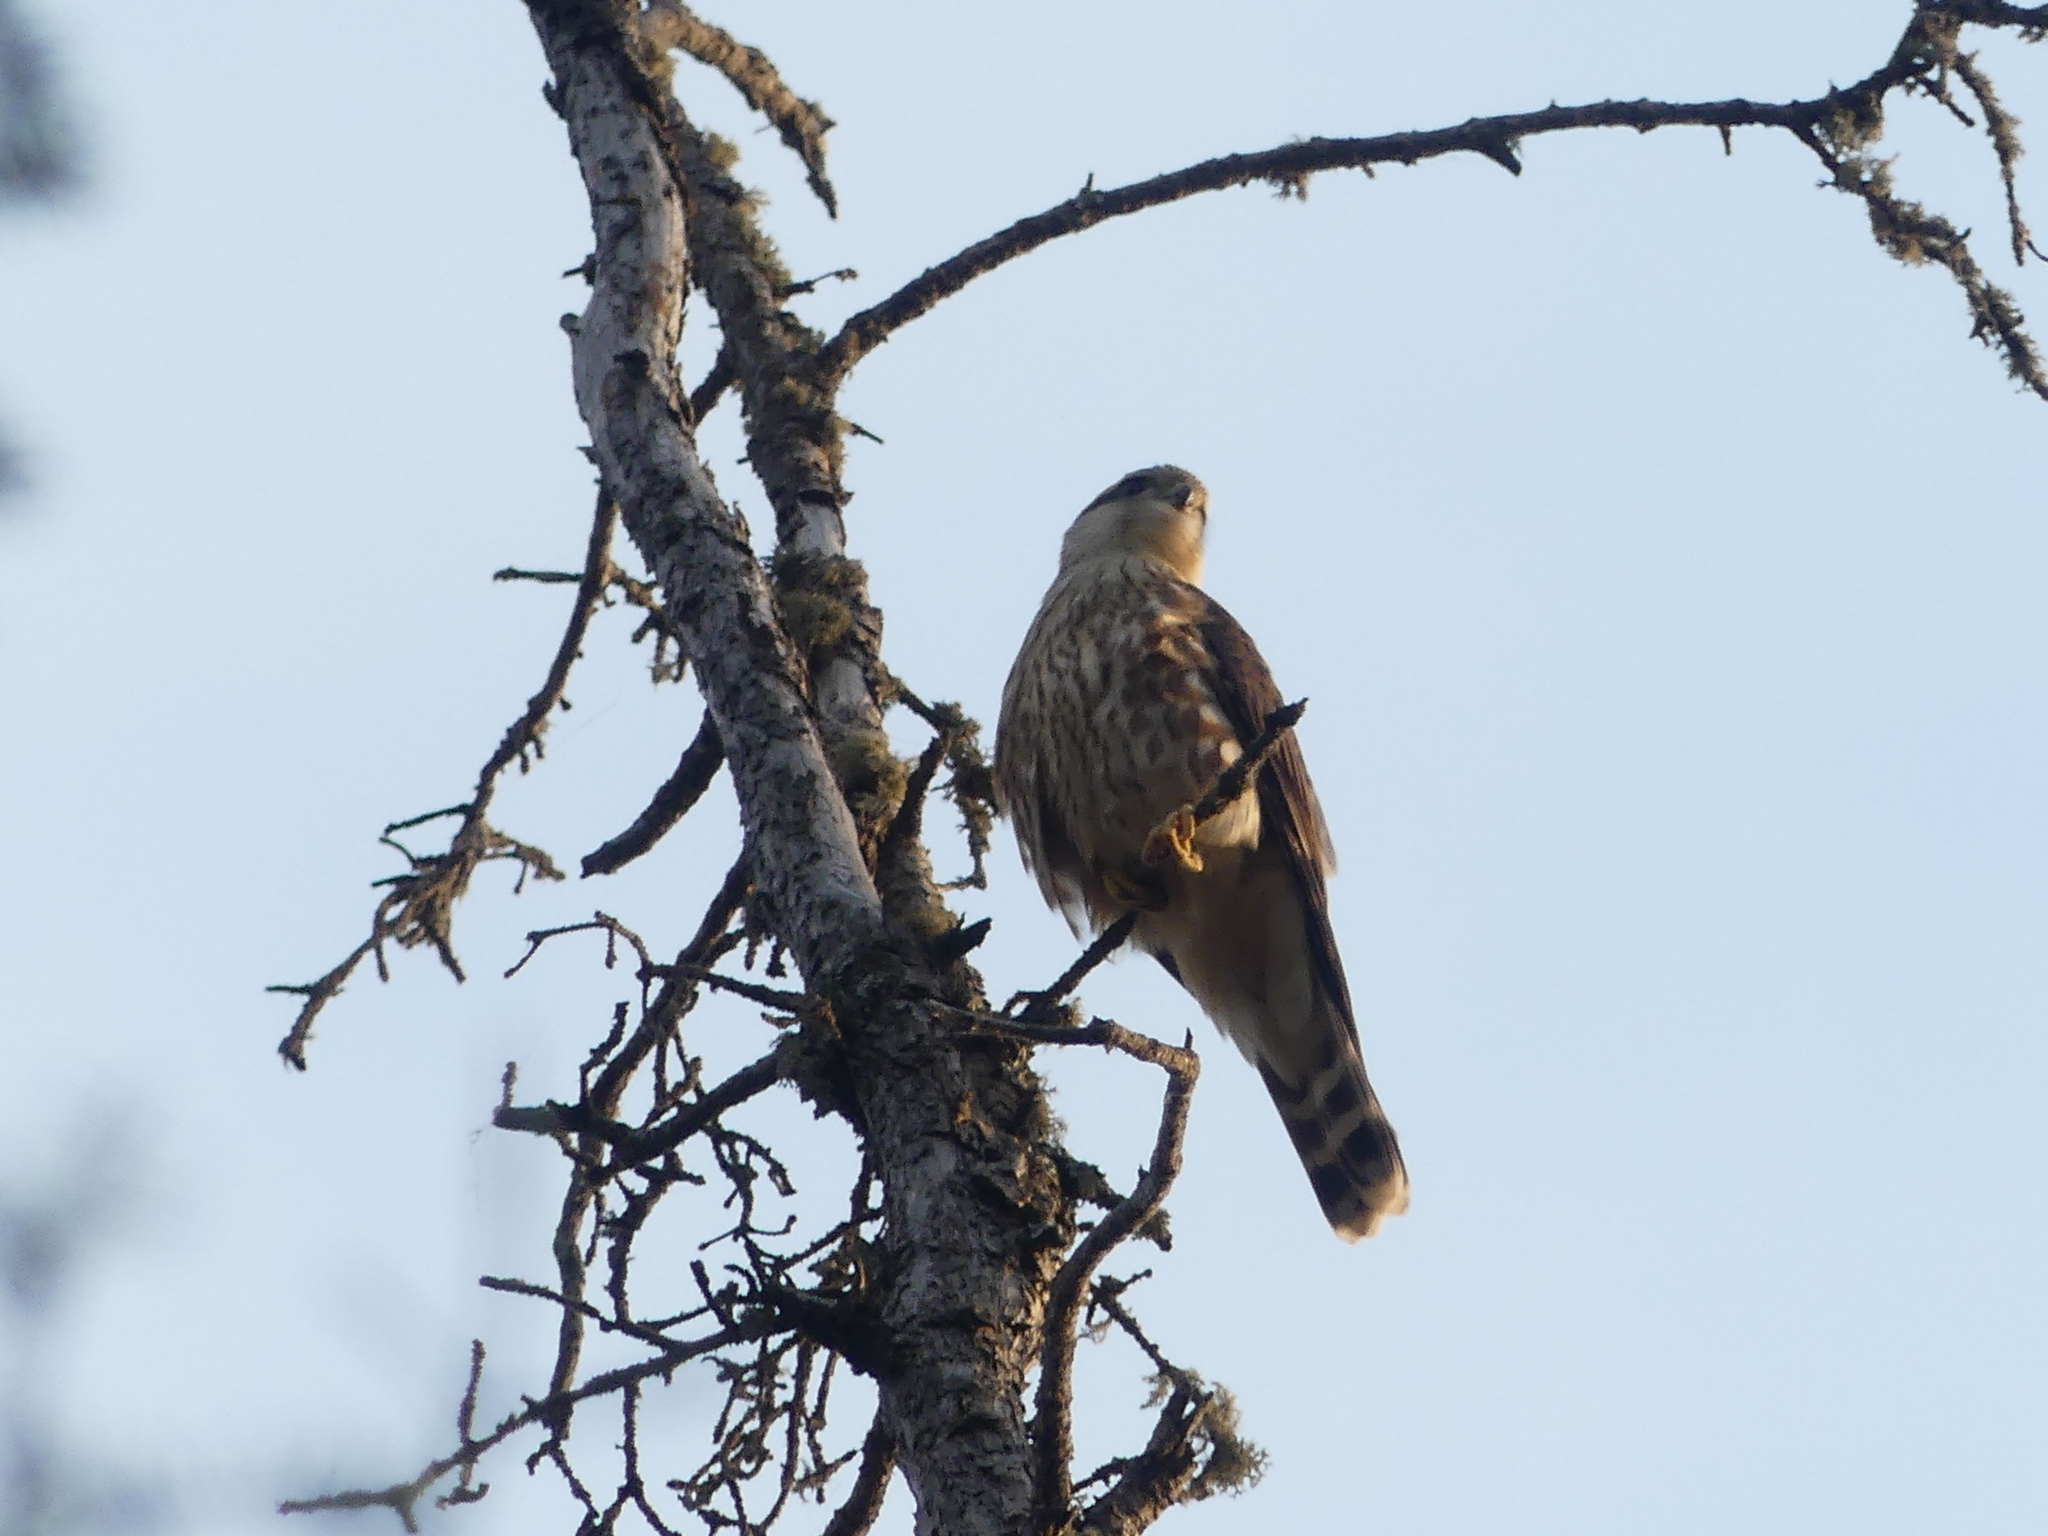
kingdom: Animalia
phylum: Chordata
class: Aves
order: Falconiformes
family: Falconidae
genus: Falco
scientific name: Falco columbarius
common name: Merlin
